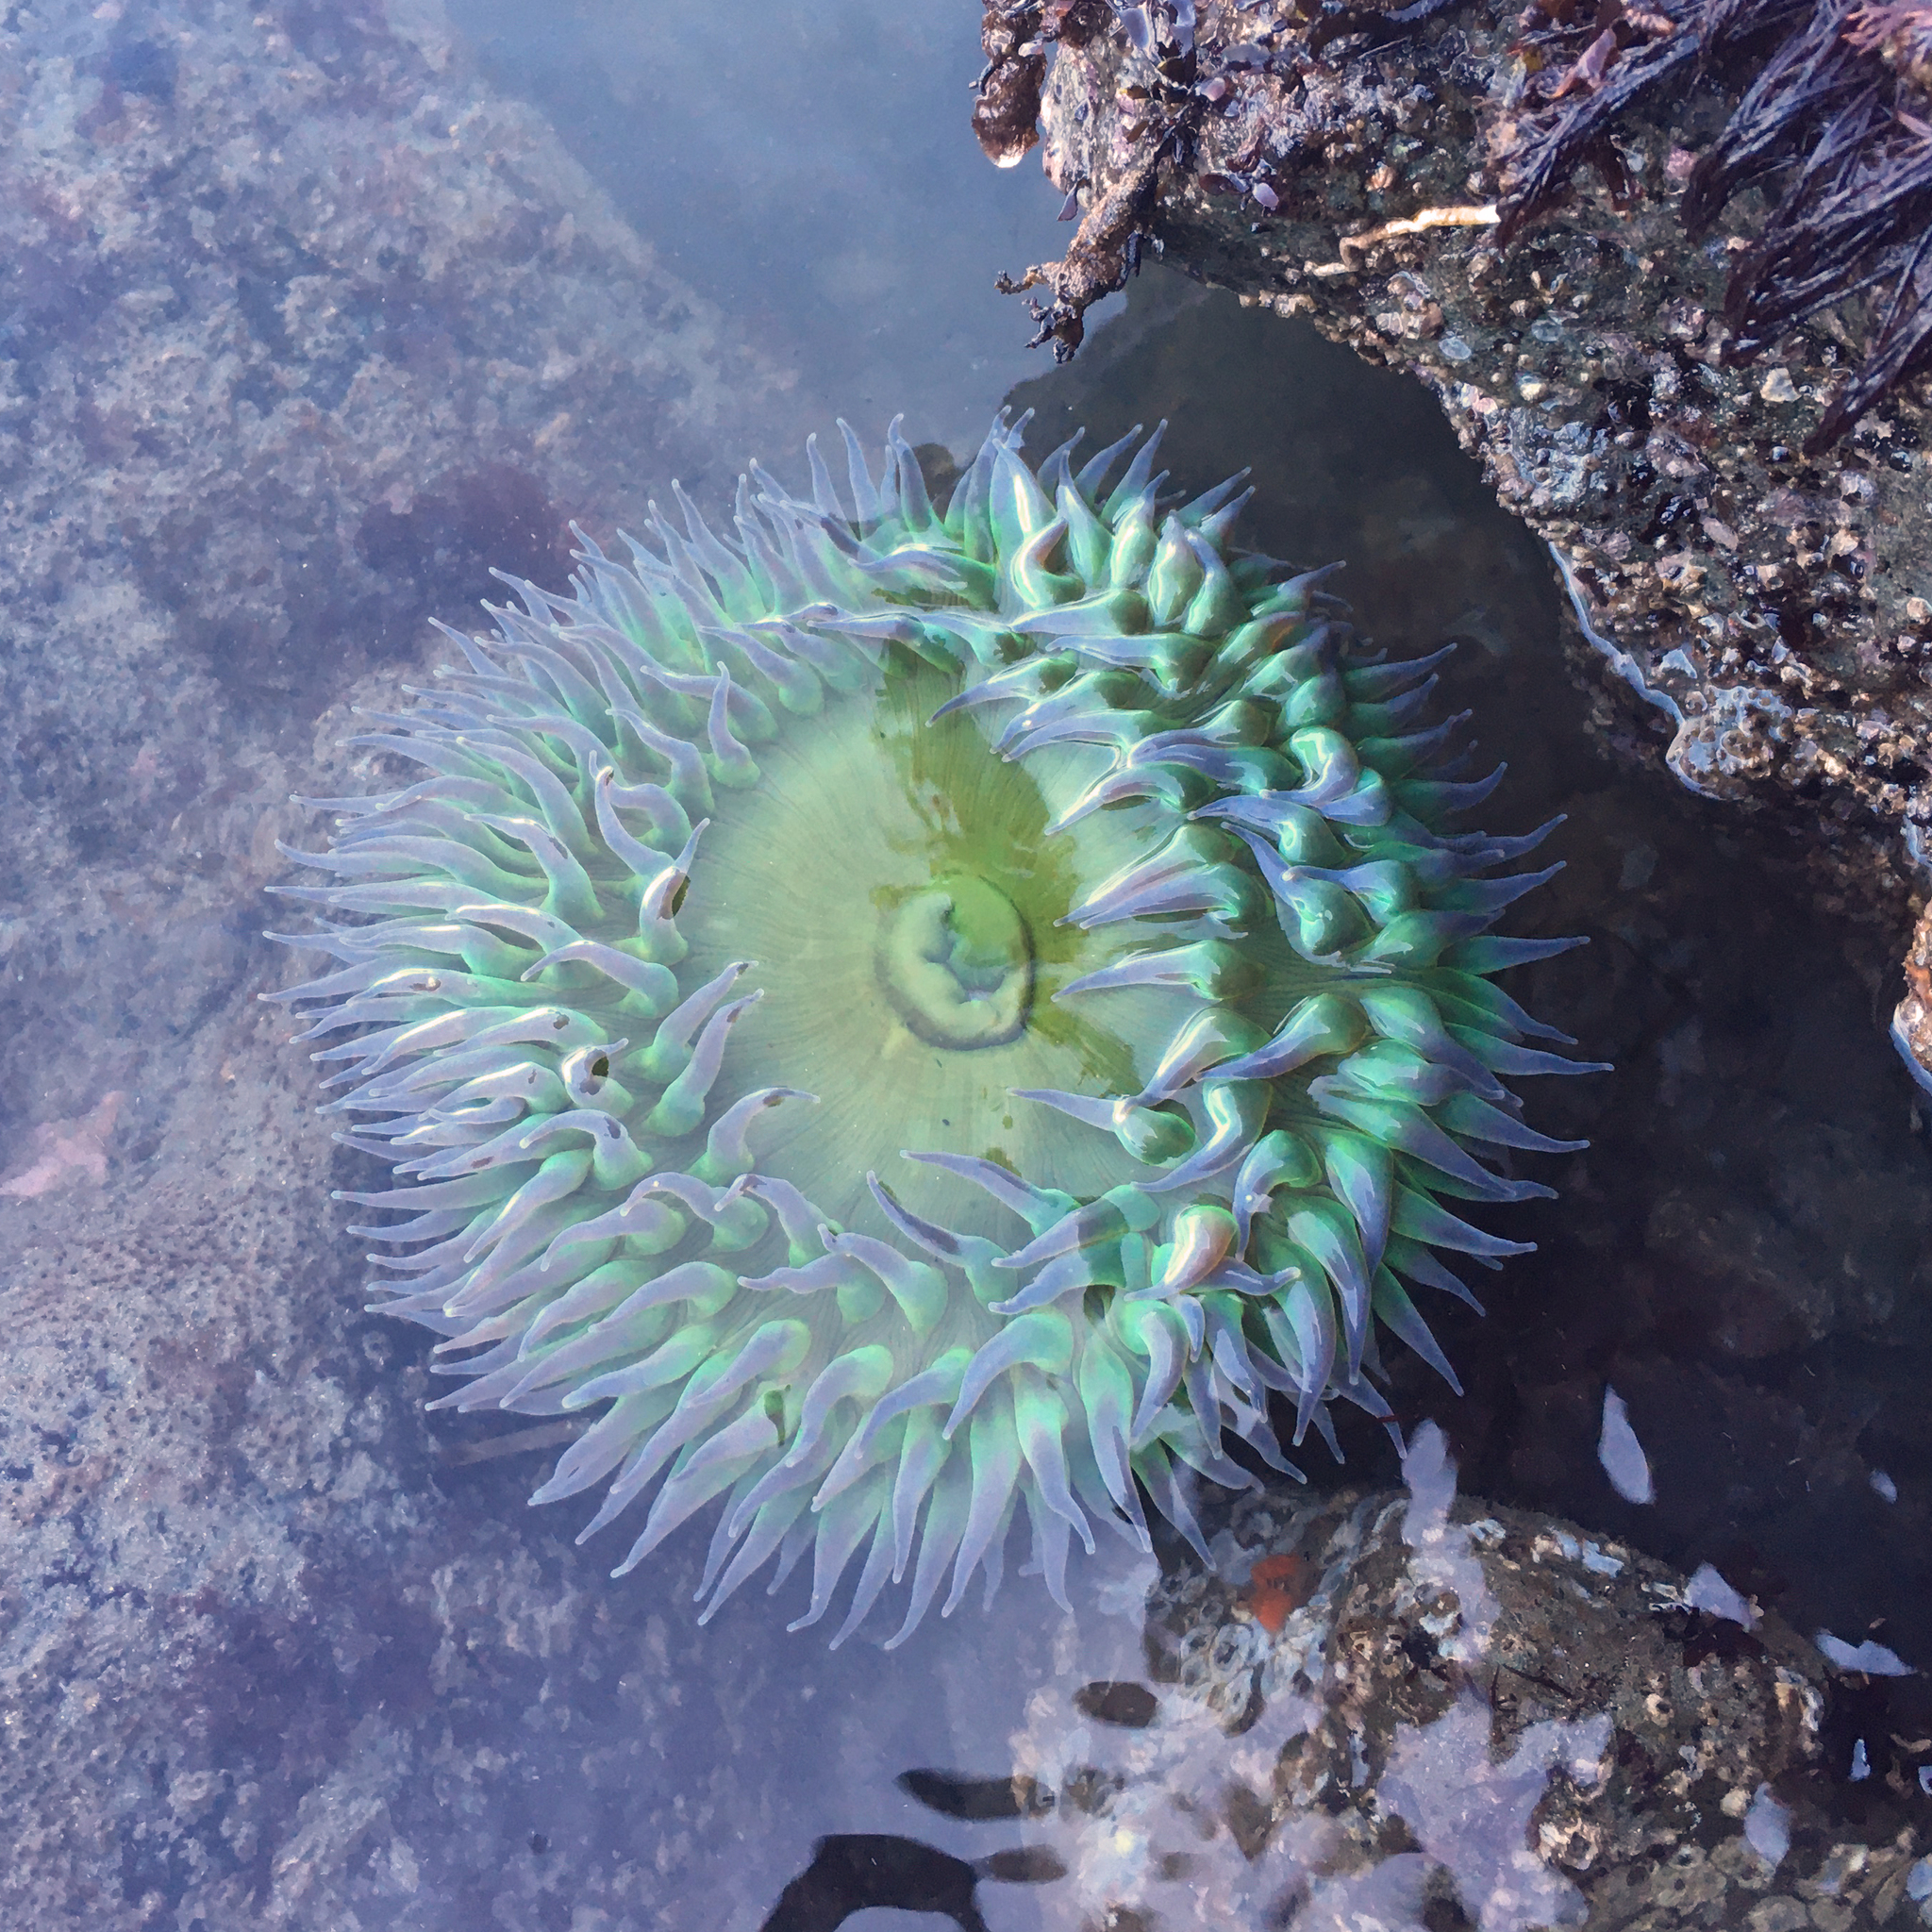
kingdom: Animalia
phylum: Cnidaria
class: Anthozoa
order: Actiniaria
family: Actiniidae
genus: Anthopleura
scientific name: Anthopleura xanthogrammica
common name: Giant green anemone
